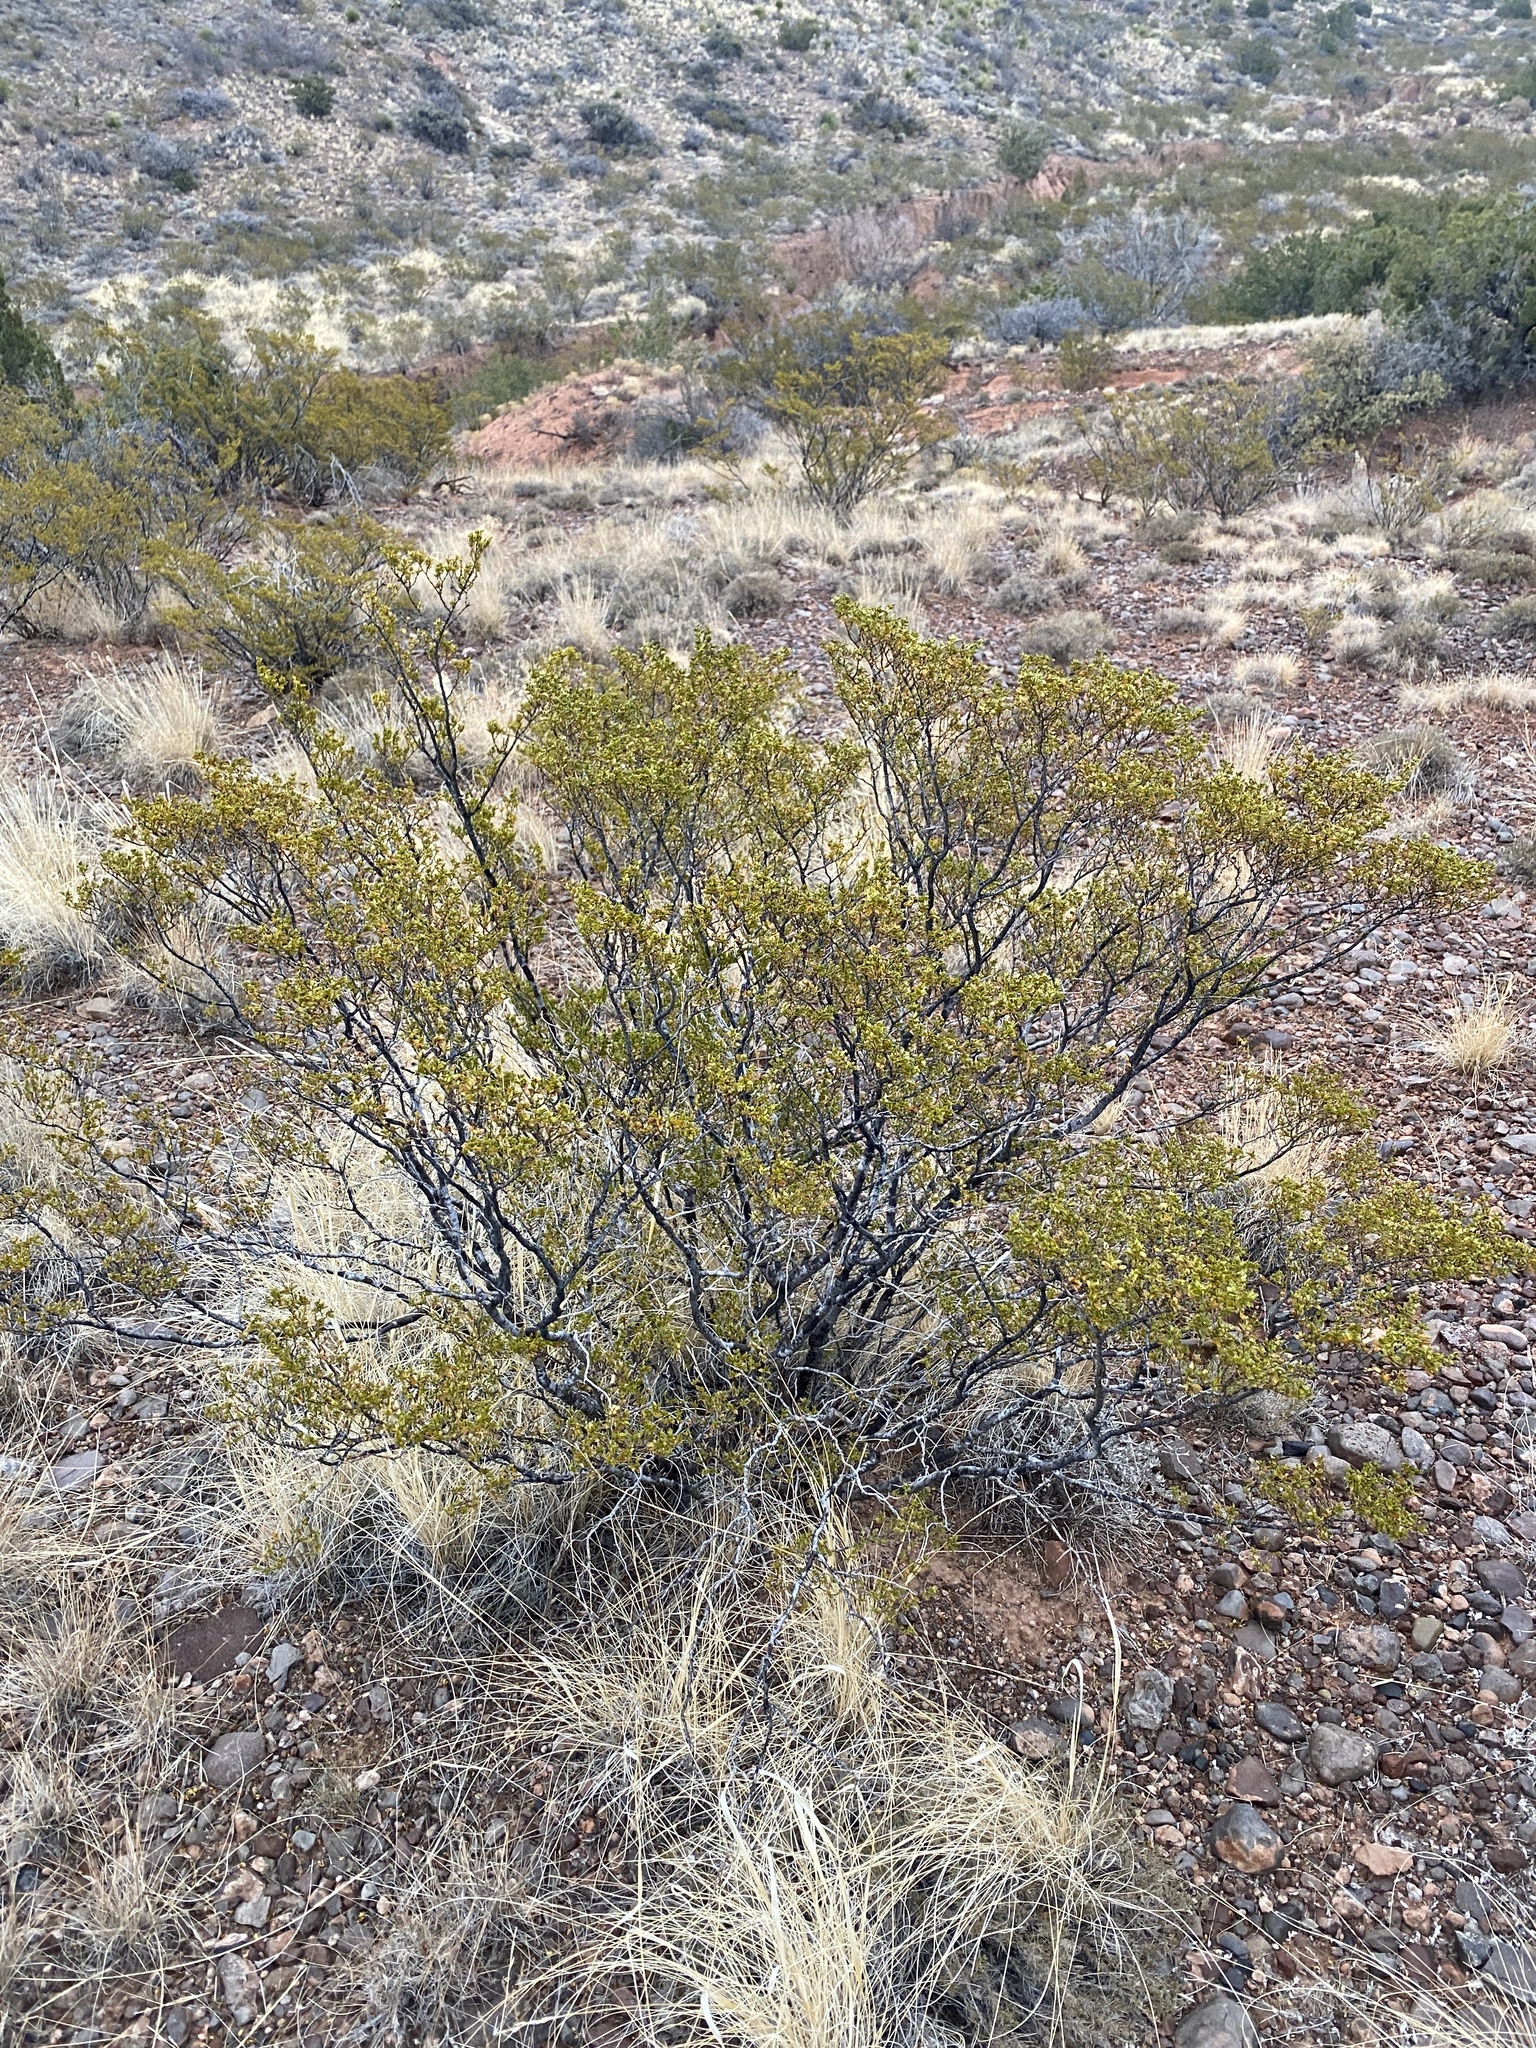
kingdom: Plantae
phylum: Tracheophyta
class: Magnoliopsida
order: Zygophyllales
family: Zygophyllaceae
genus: Larrea
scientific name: Larrea tridentata
